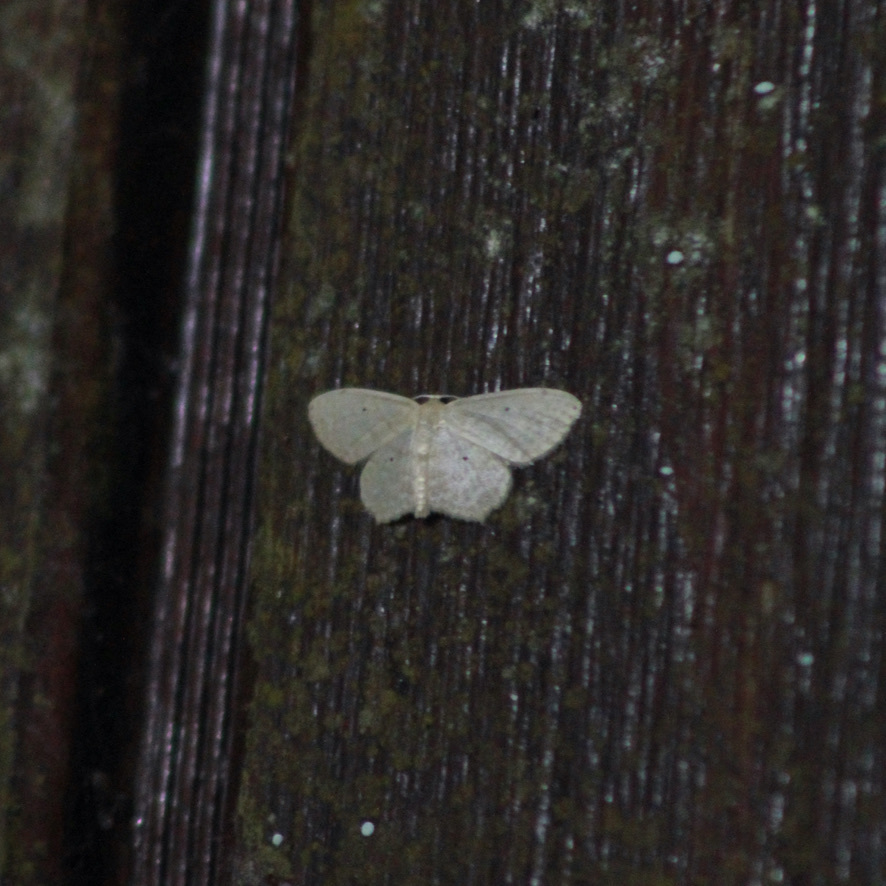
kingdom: Animalia
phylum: Arthropoda
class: Insecta
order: Lepidoptera
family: Geometridae
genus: Scopula
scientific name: Scopula apparitaria
